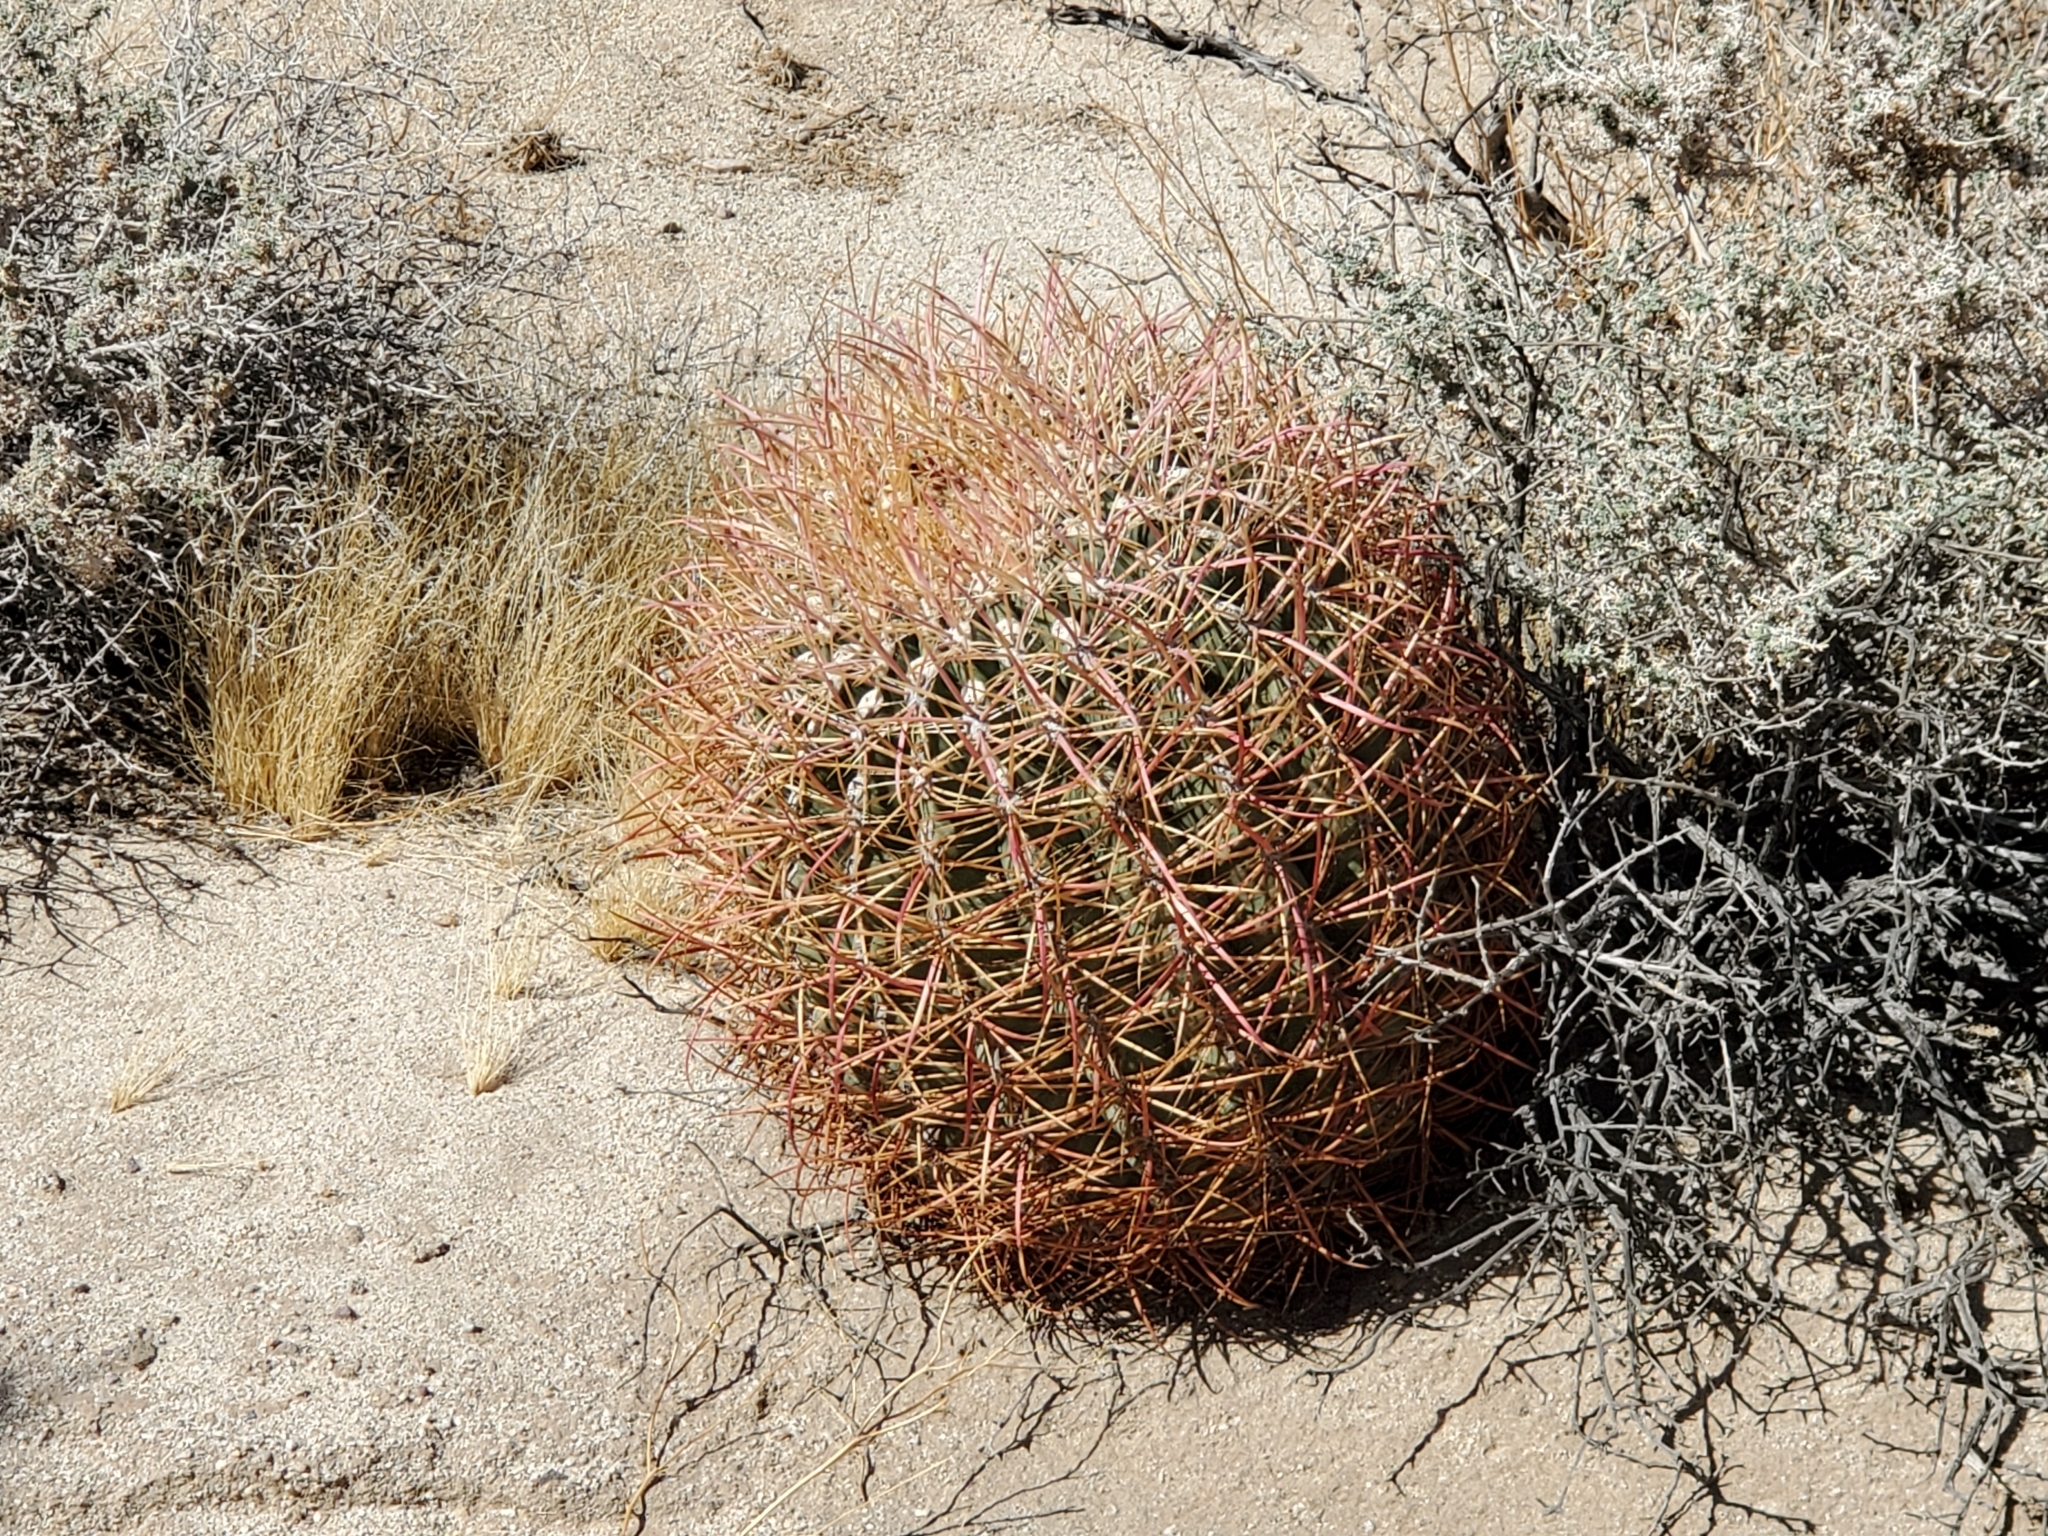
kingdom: Plantae
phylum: Tracheophyta
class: Magnoliopsida
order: Caryophyllales
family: Cactaceae
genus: Ferocactus
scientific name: Ferocactus cylindraceus
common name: California barrel cactus
